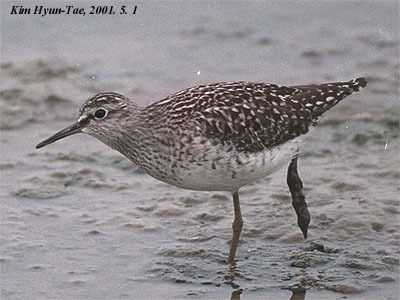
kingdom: Animalia
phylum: Chordata
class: Aves
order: Charadriiformes
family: Scolopacidae
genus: Tringa
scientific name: Tringa glareola
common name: Wood sandpiper
